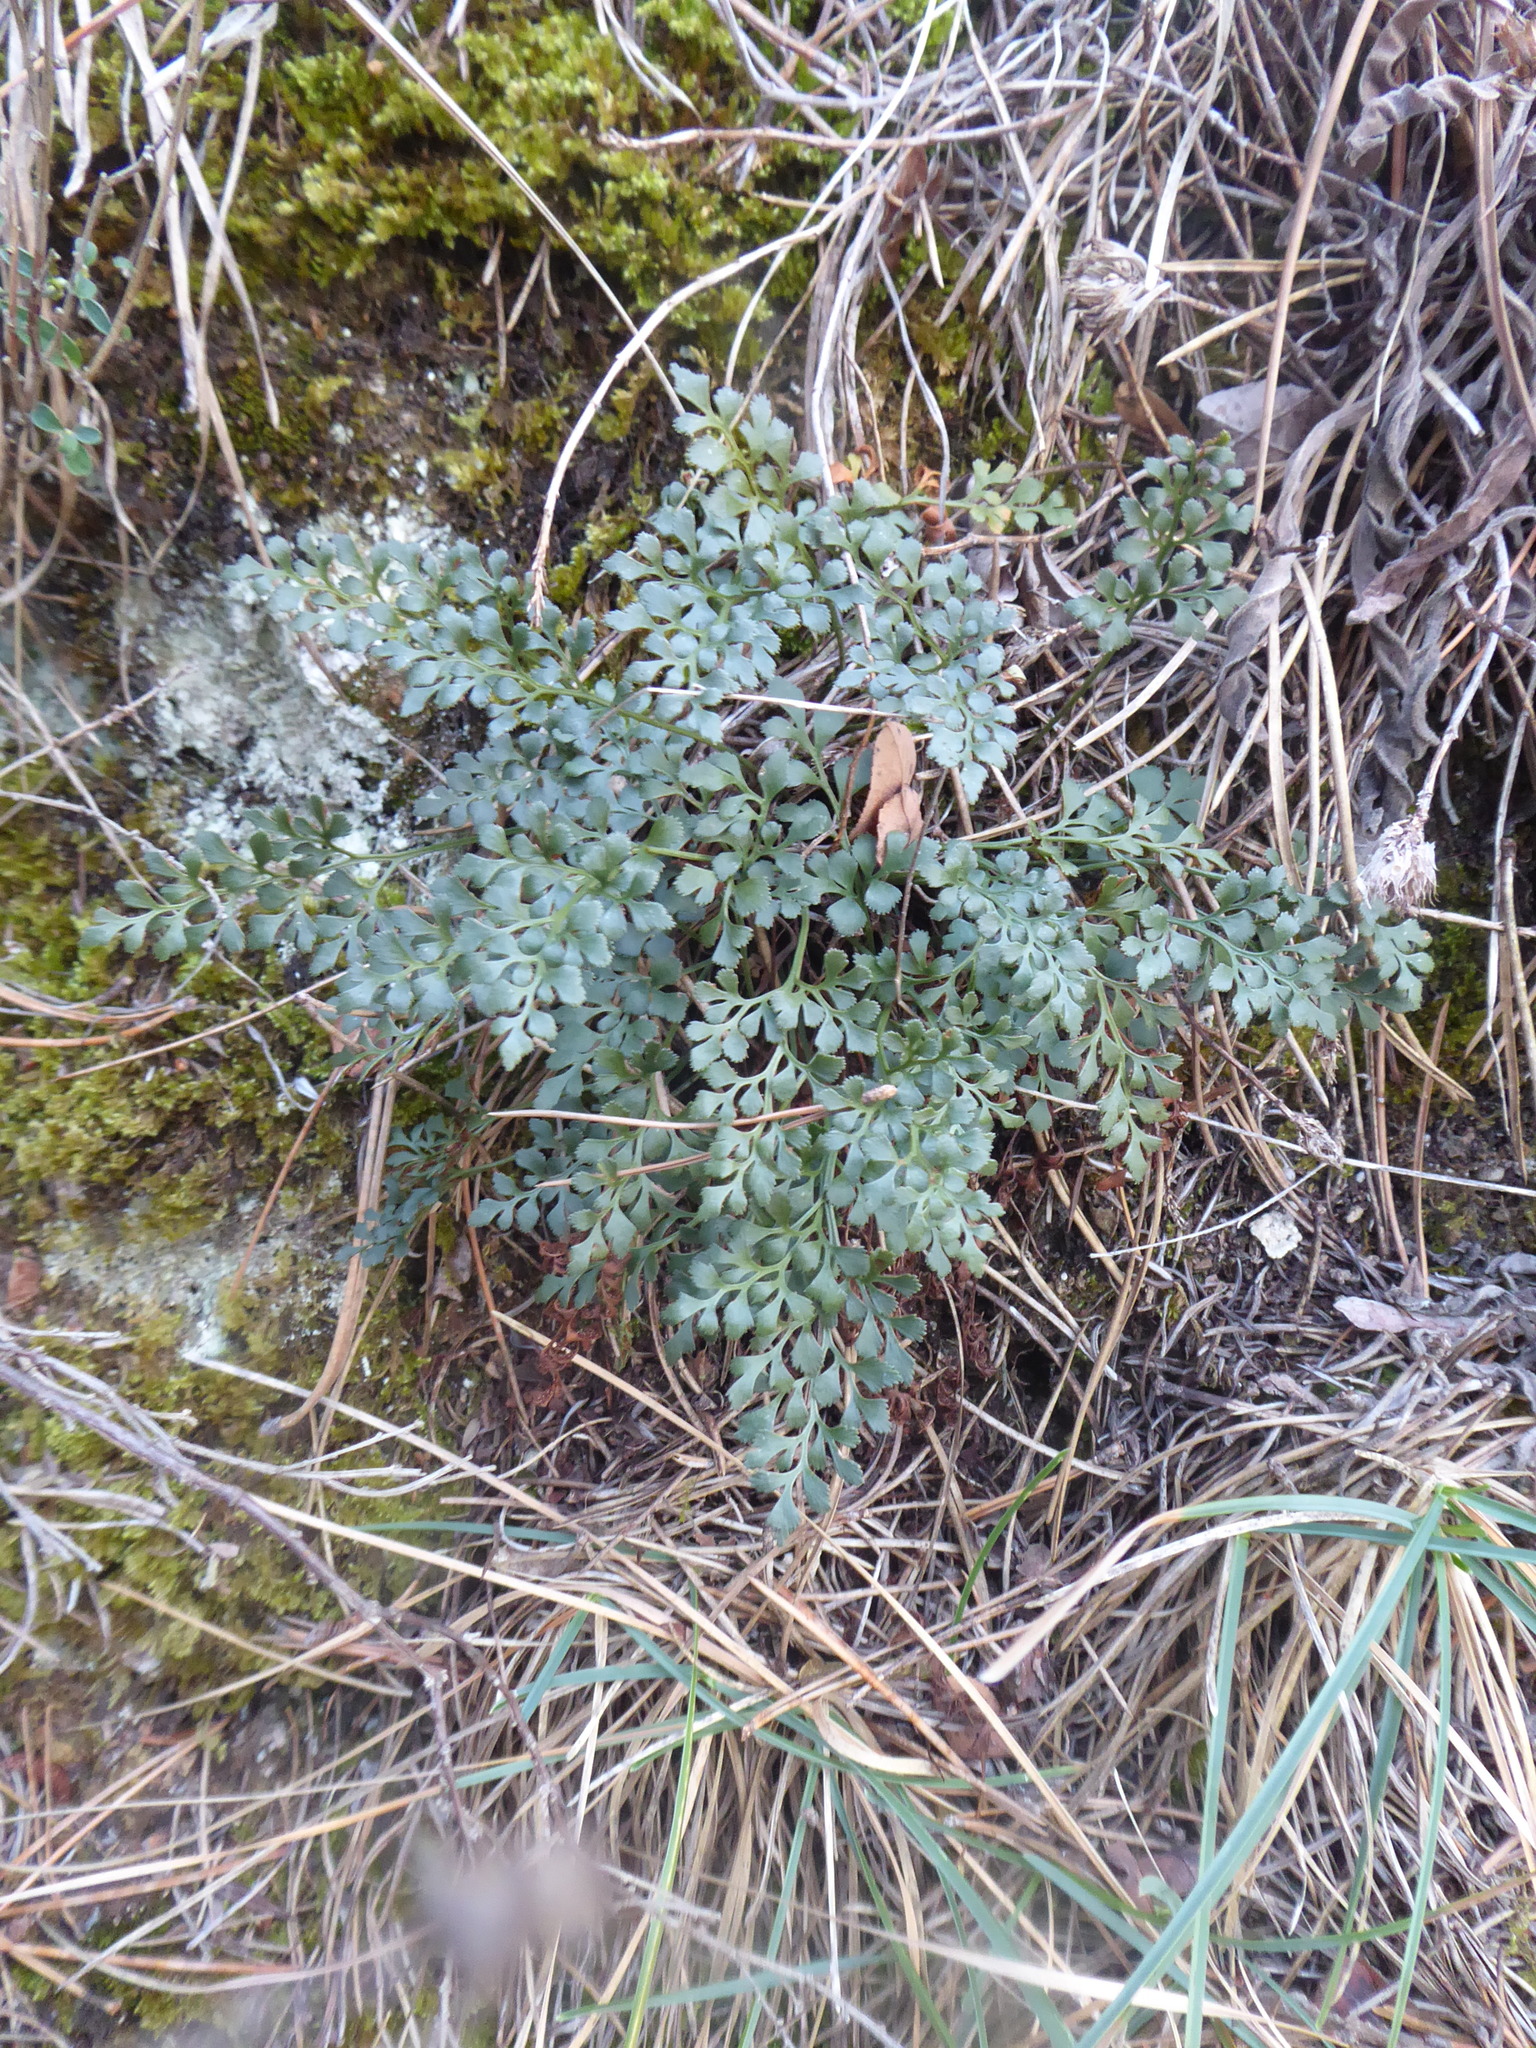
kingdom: Plantae
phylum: Tracheophyta
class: Polypodiopsida
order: Polypodiales
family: Aspleniaceae
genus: Asplenium
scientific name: Asplenium ruta-muraria
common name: Wall-rue
